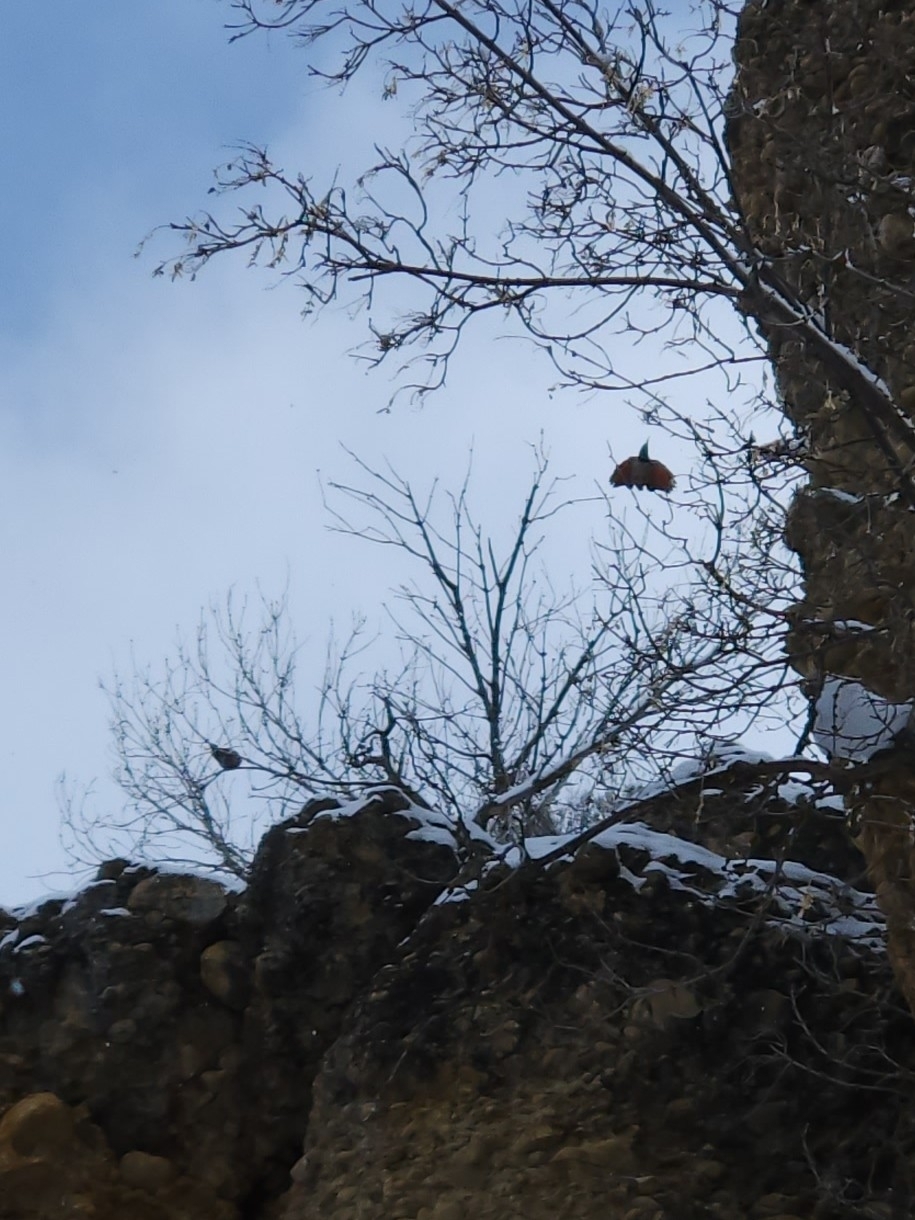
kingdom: Animalia
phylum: Chordata
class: Aves
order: Piciformes
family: Picidae
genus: Colaptes
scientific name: Colaptes auratus
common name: Northern flicker
